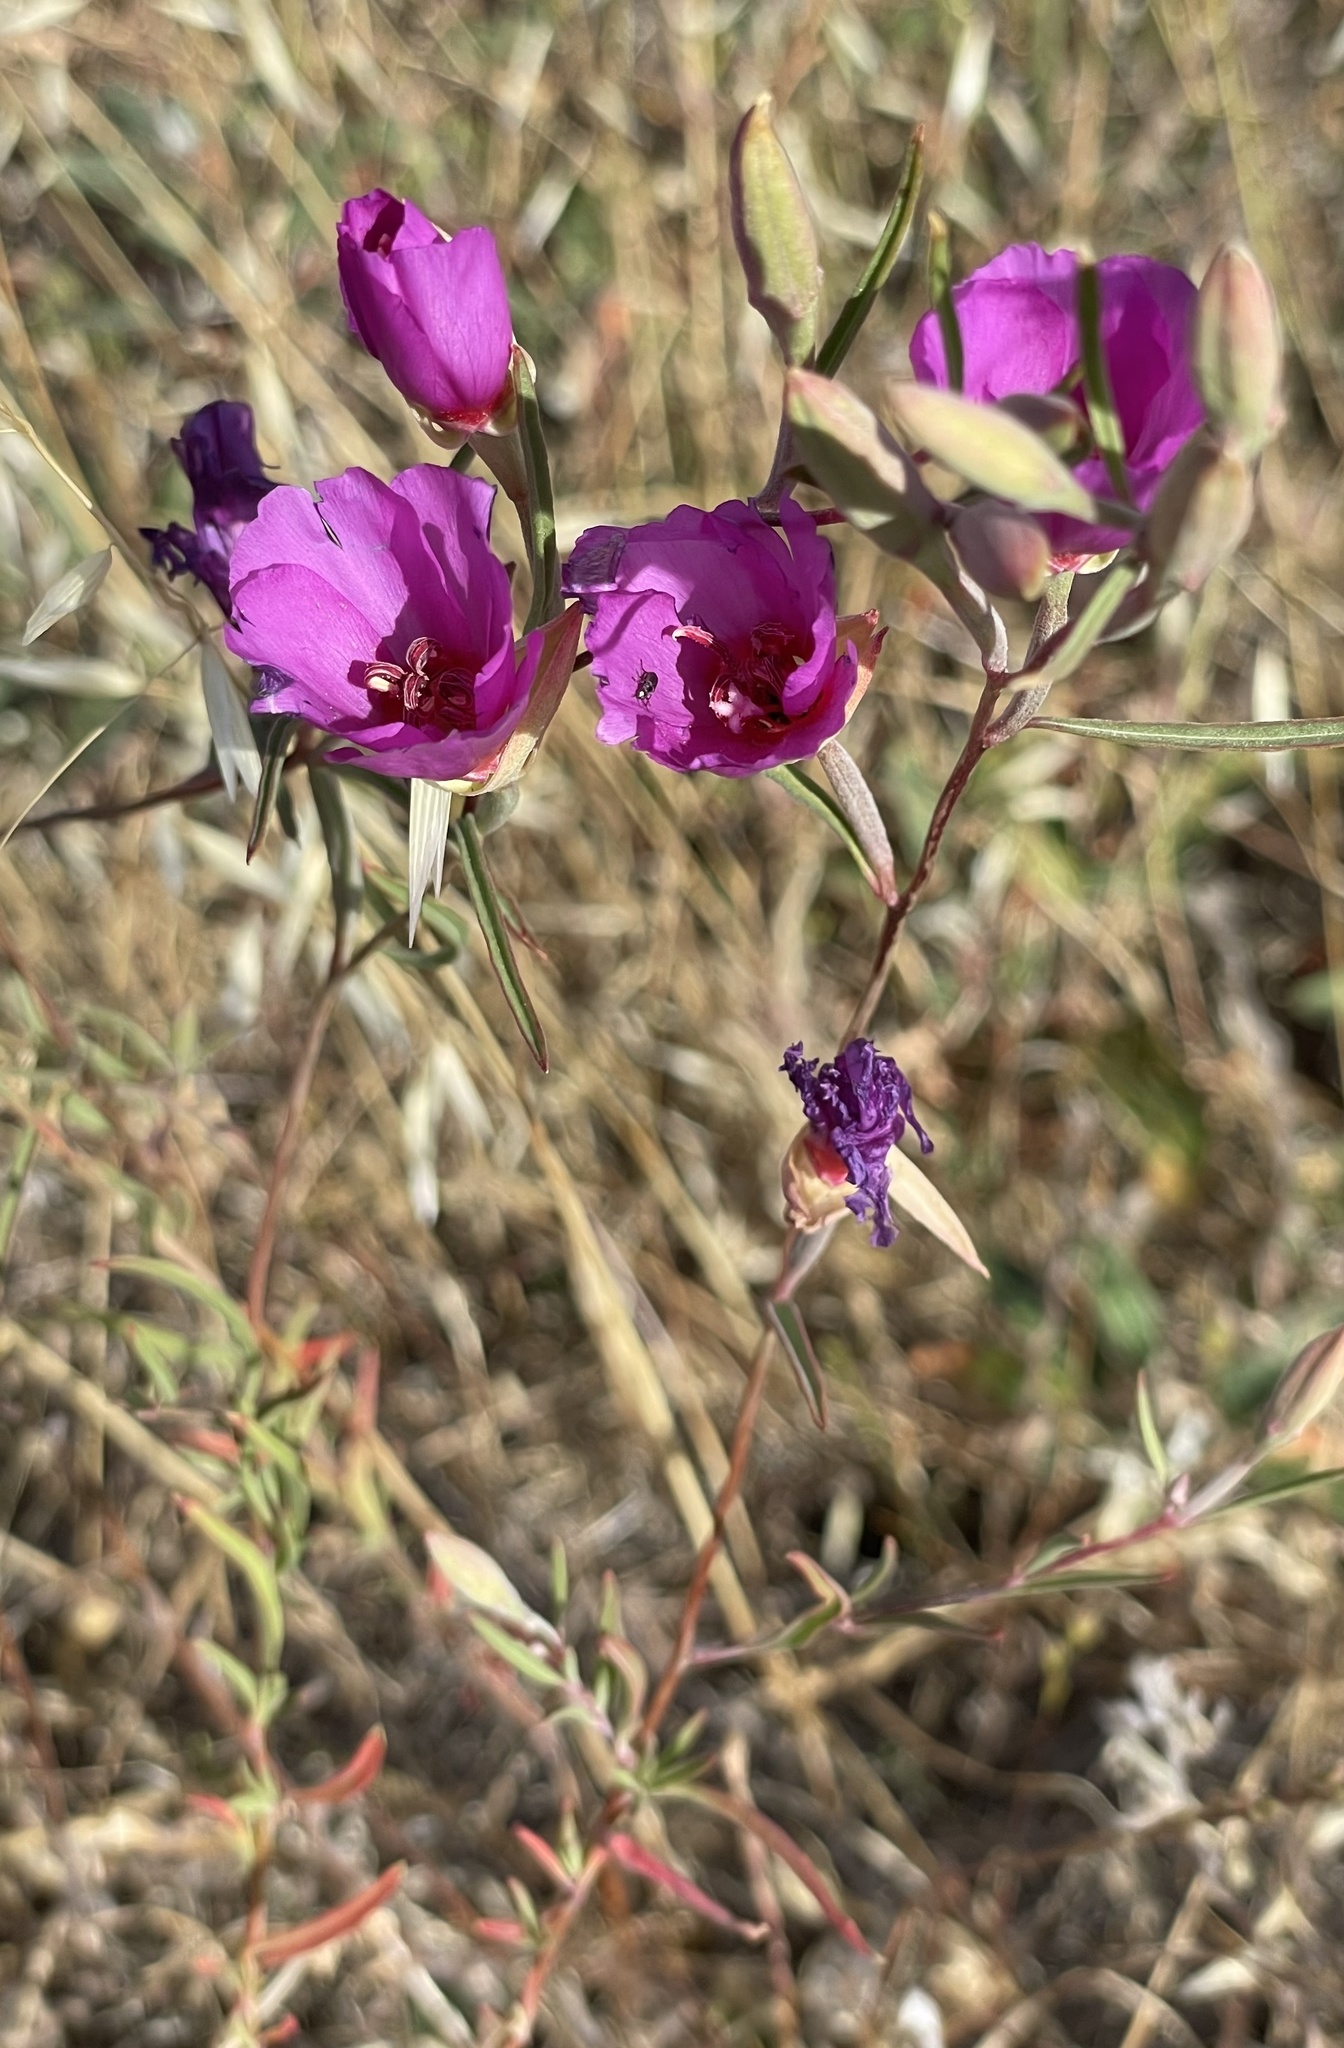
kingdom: Plantae
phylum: Tracheophyta
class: Magnoliopsida
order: Myrtales
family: Onagraceae
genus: Clarkia
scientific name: Clarkia rubicunda
